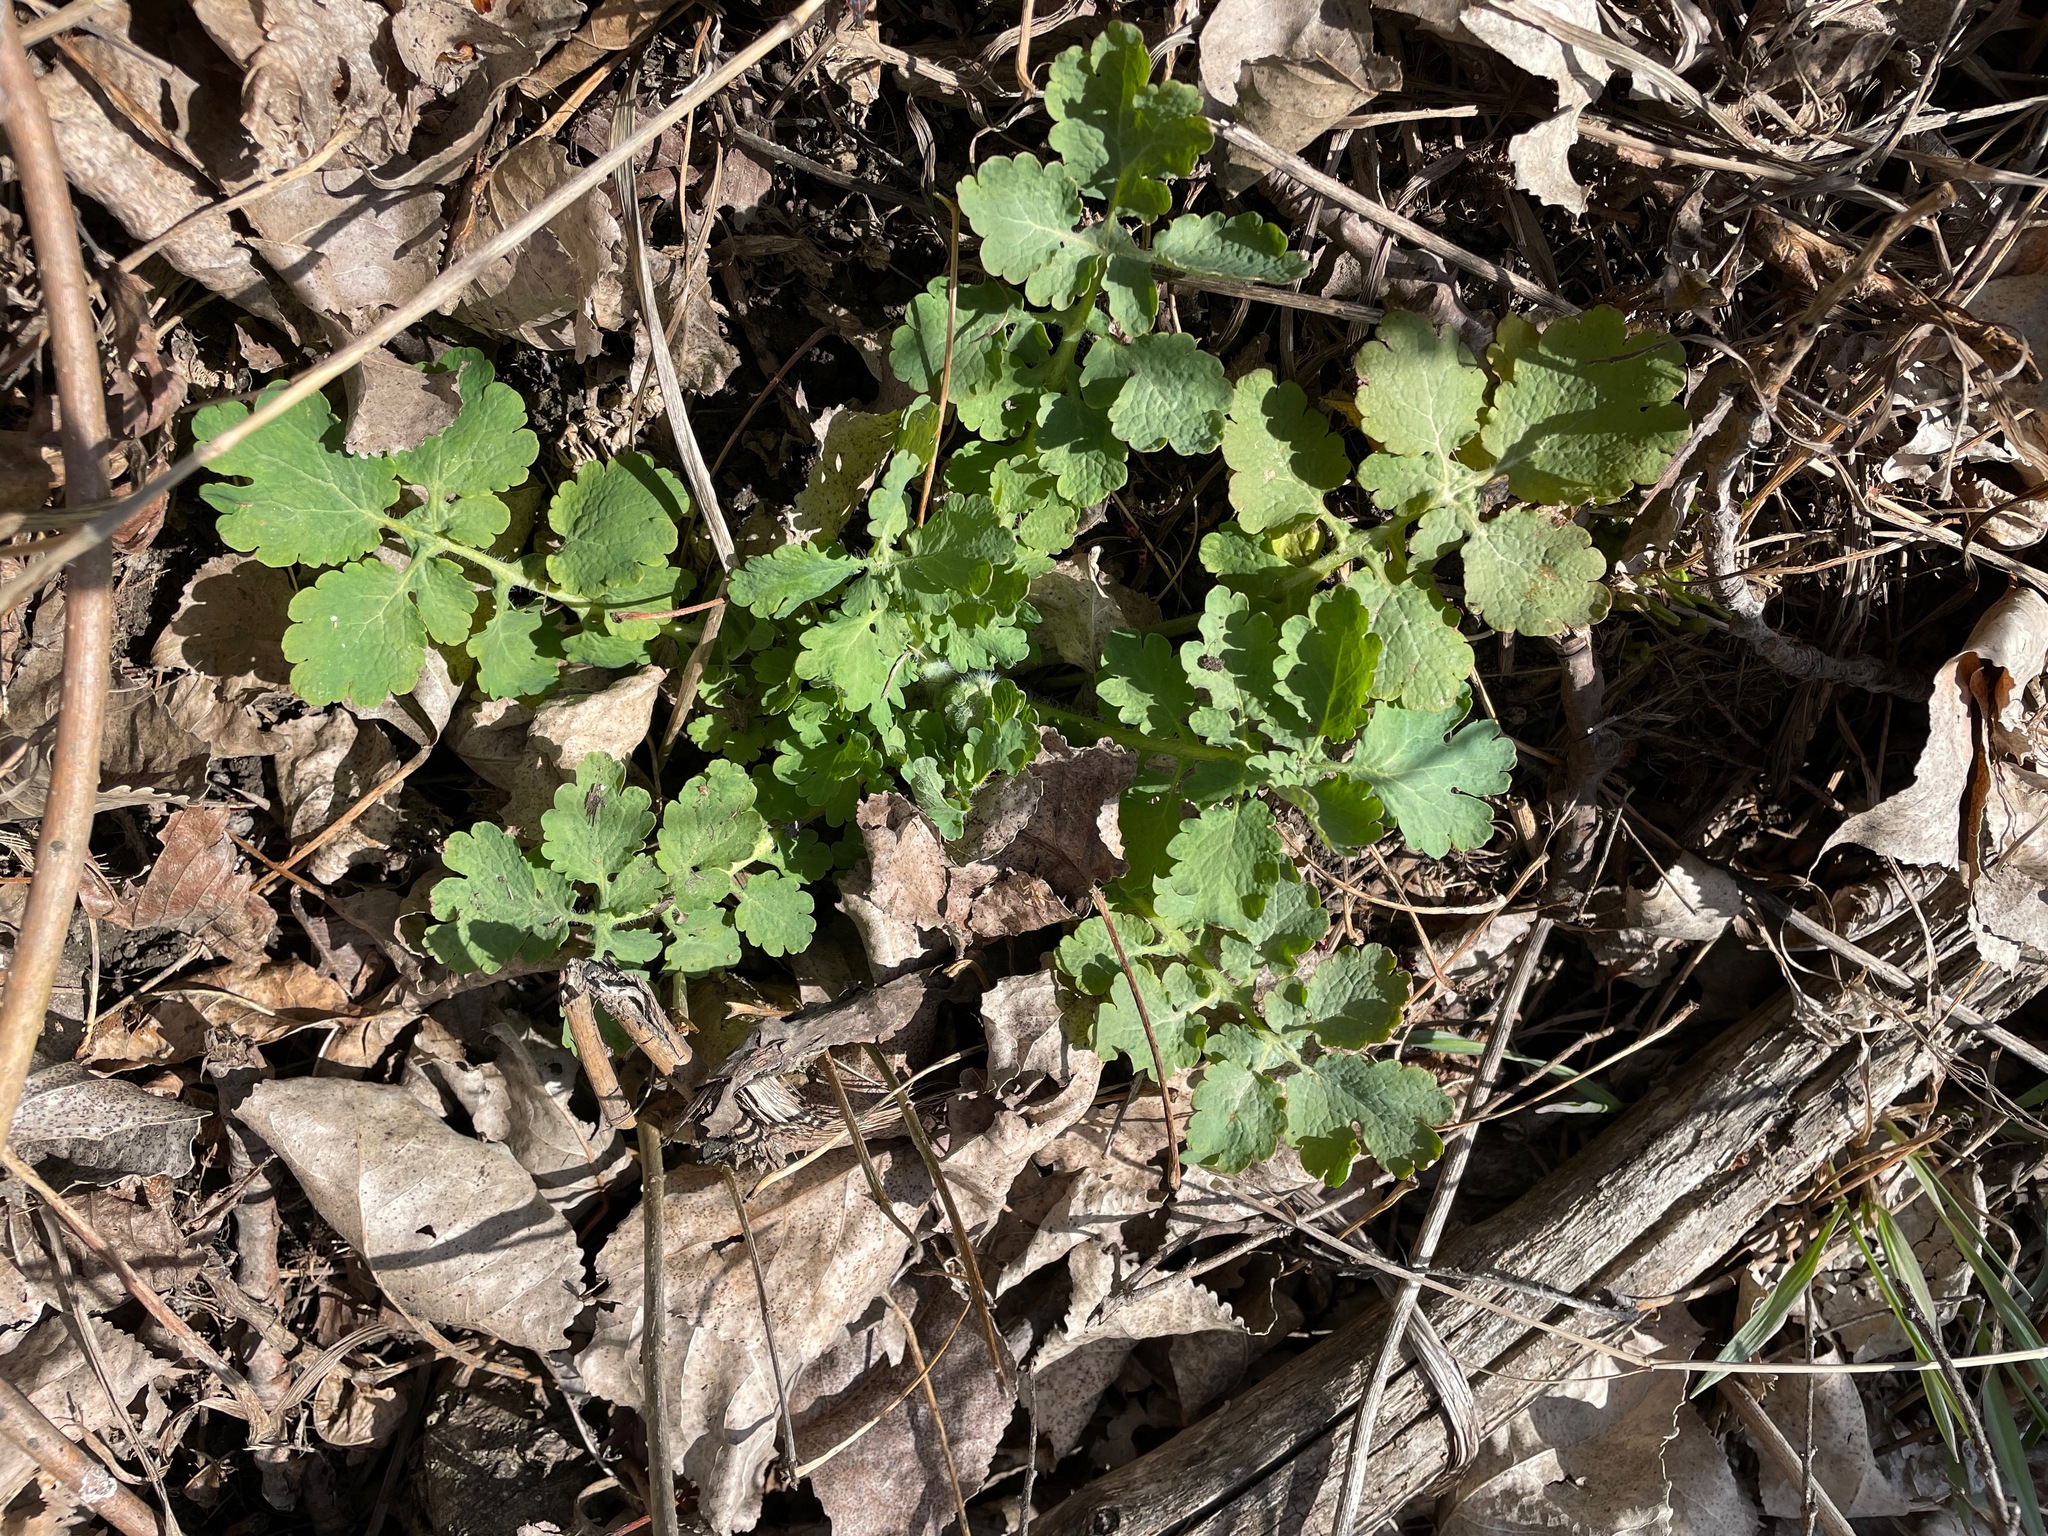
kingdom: Plantae
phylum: Tracheophyta
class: Magnoliopsida
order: Ranunculales
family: Papaveraceae
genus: Chelidonium
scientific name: Chelidonium majus
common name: Greater celandine
